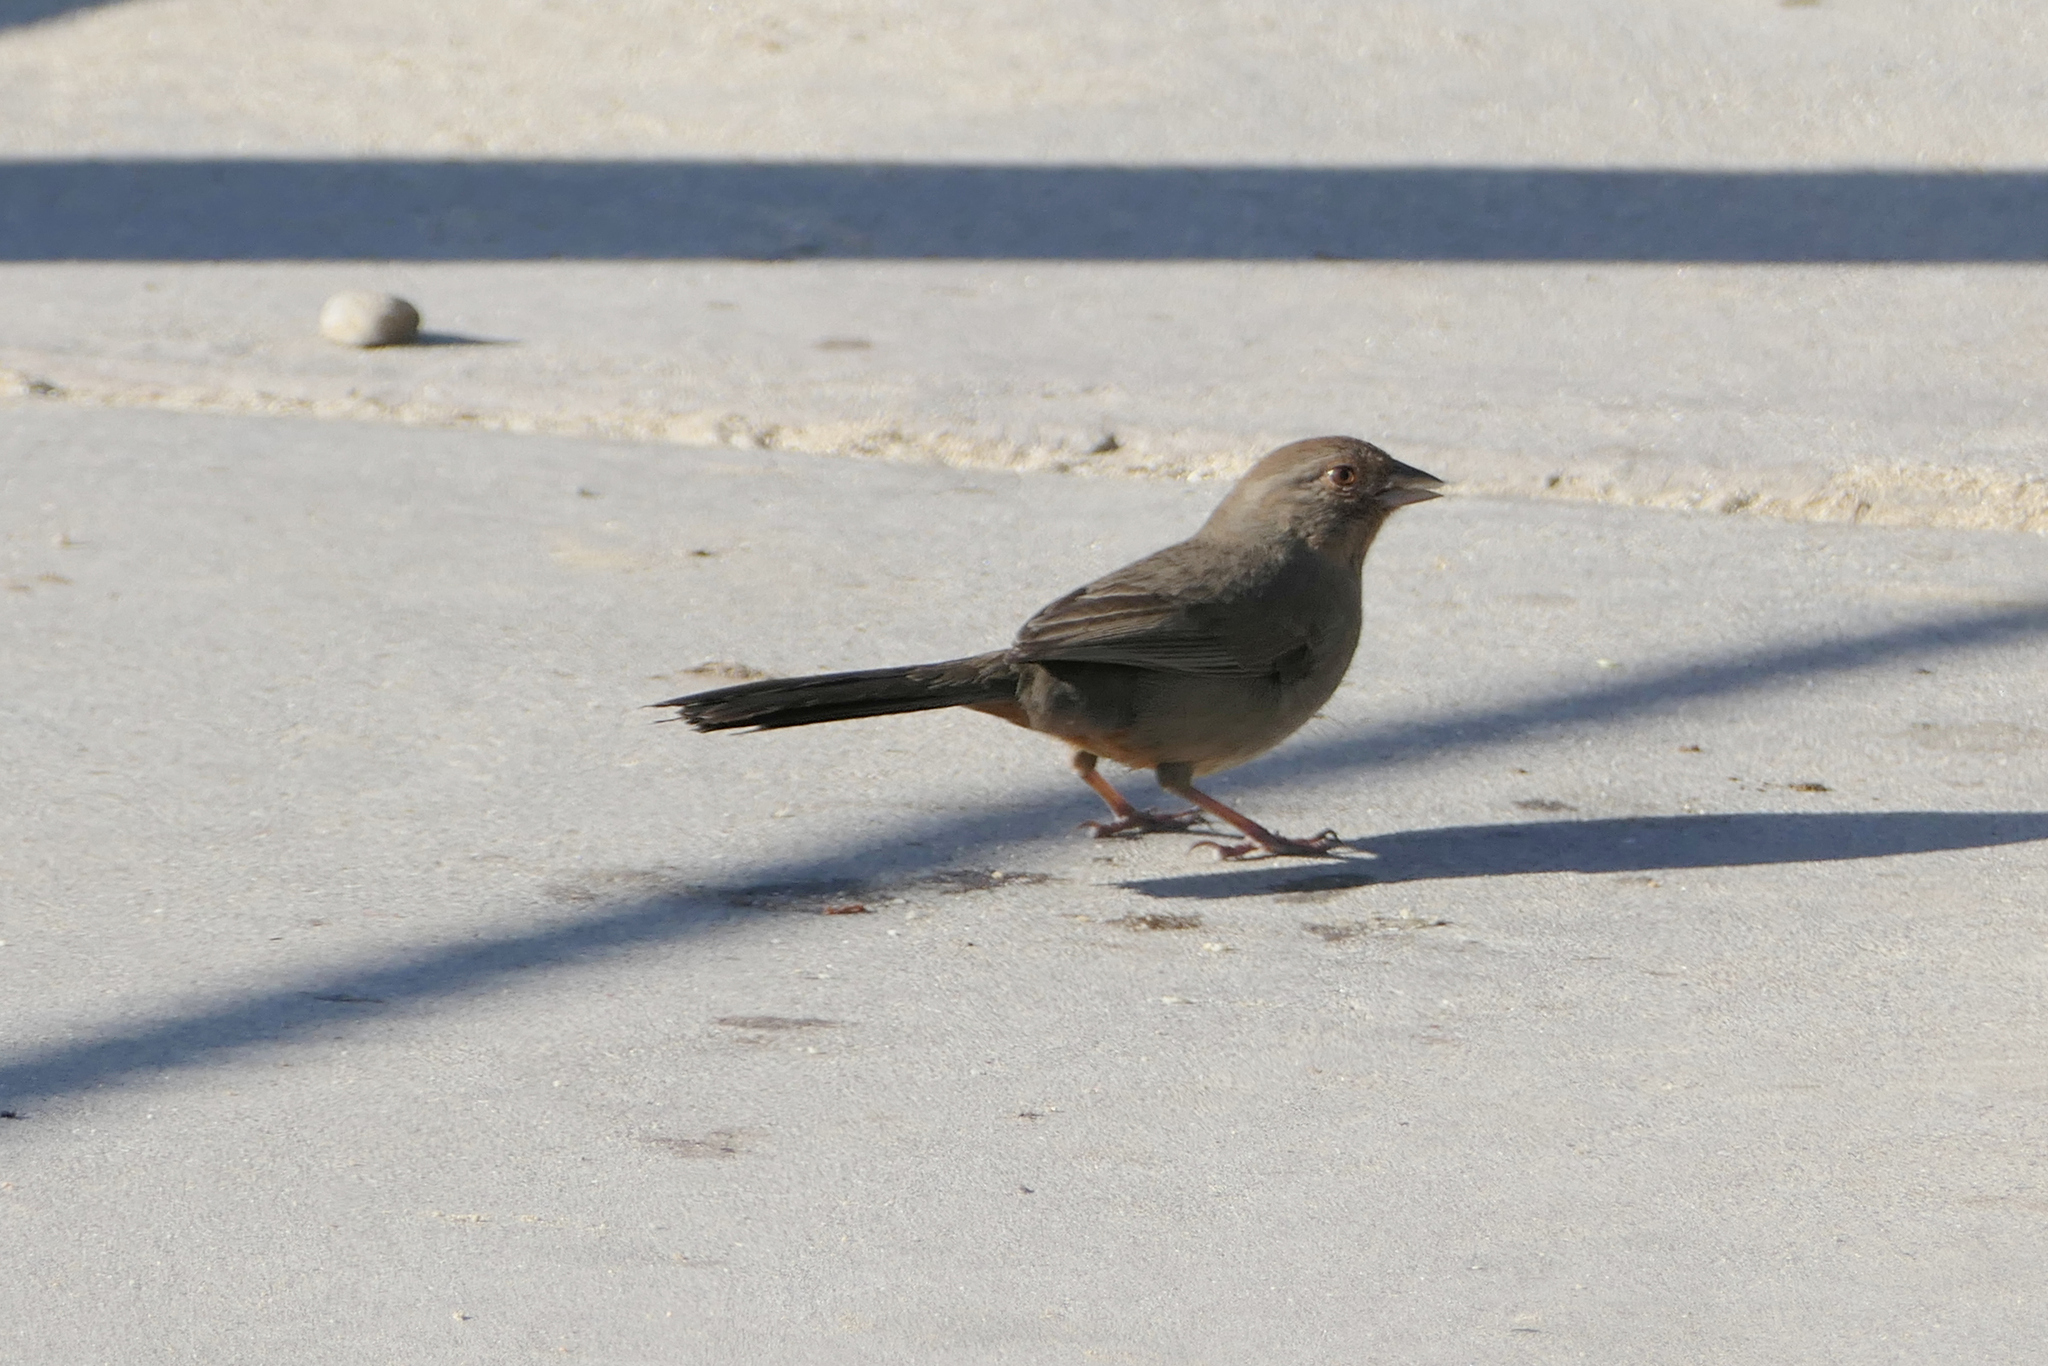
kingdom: Animalia
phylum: Chordata
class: Aves
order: Passeriformes
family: Passerellidae
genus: Melozone
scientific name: Melozone crissalis
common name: California towhee
